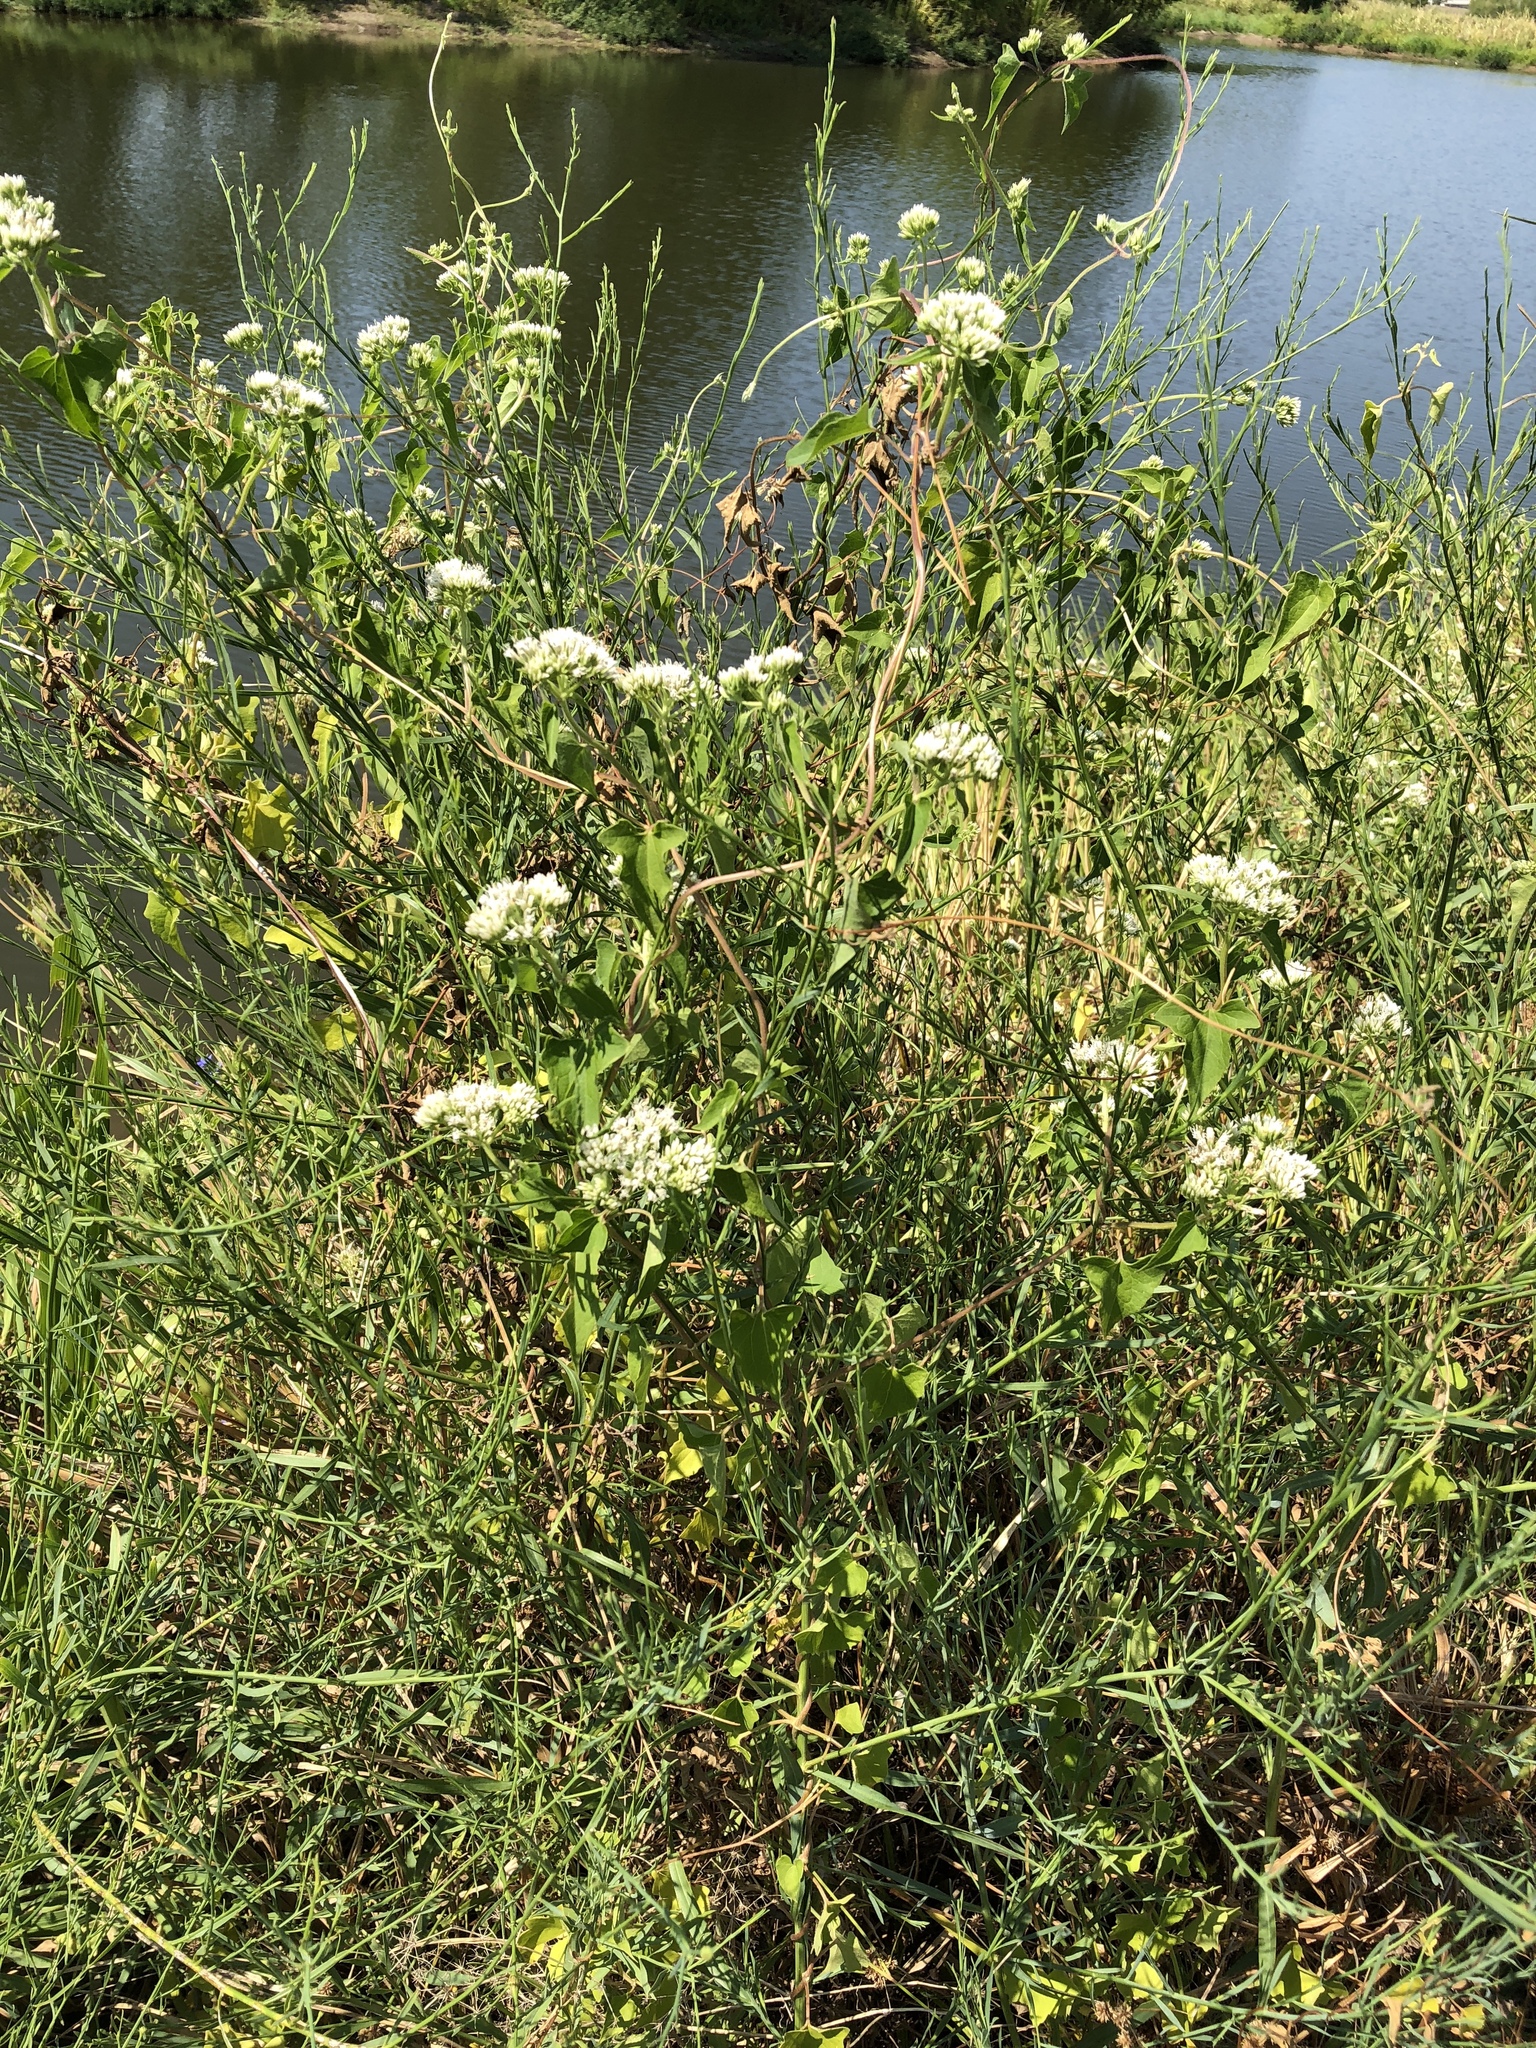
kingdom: Plantae
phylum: Tracheophyta
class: Magnoliopsida
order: Asterales
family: Asteraceae
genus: Mikania
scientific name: Mikania scandens
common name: Climbing hempvine
